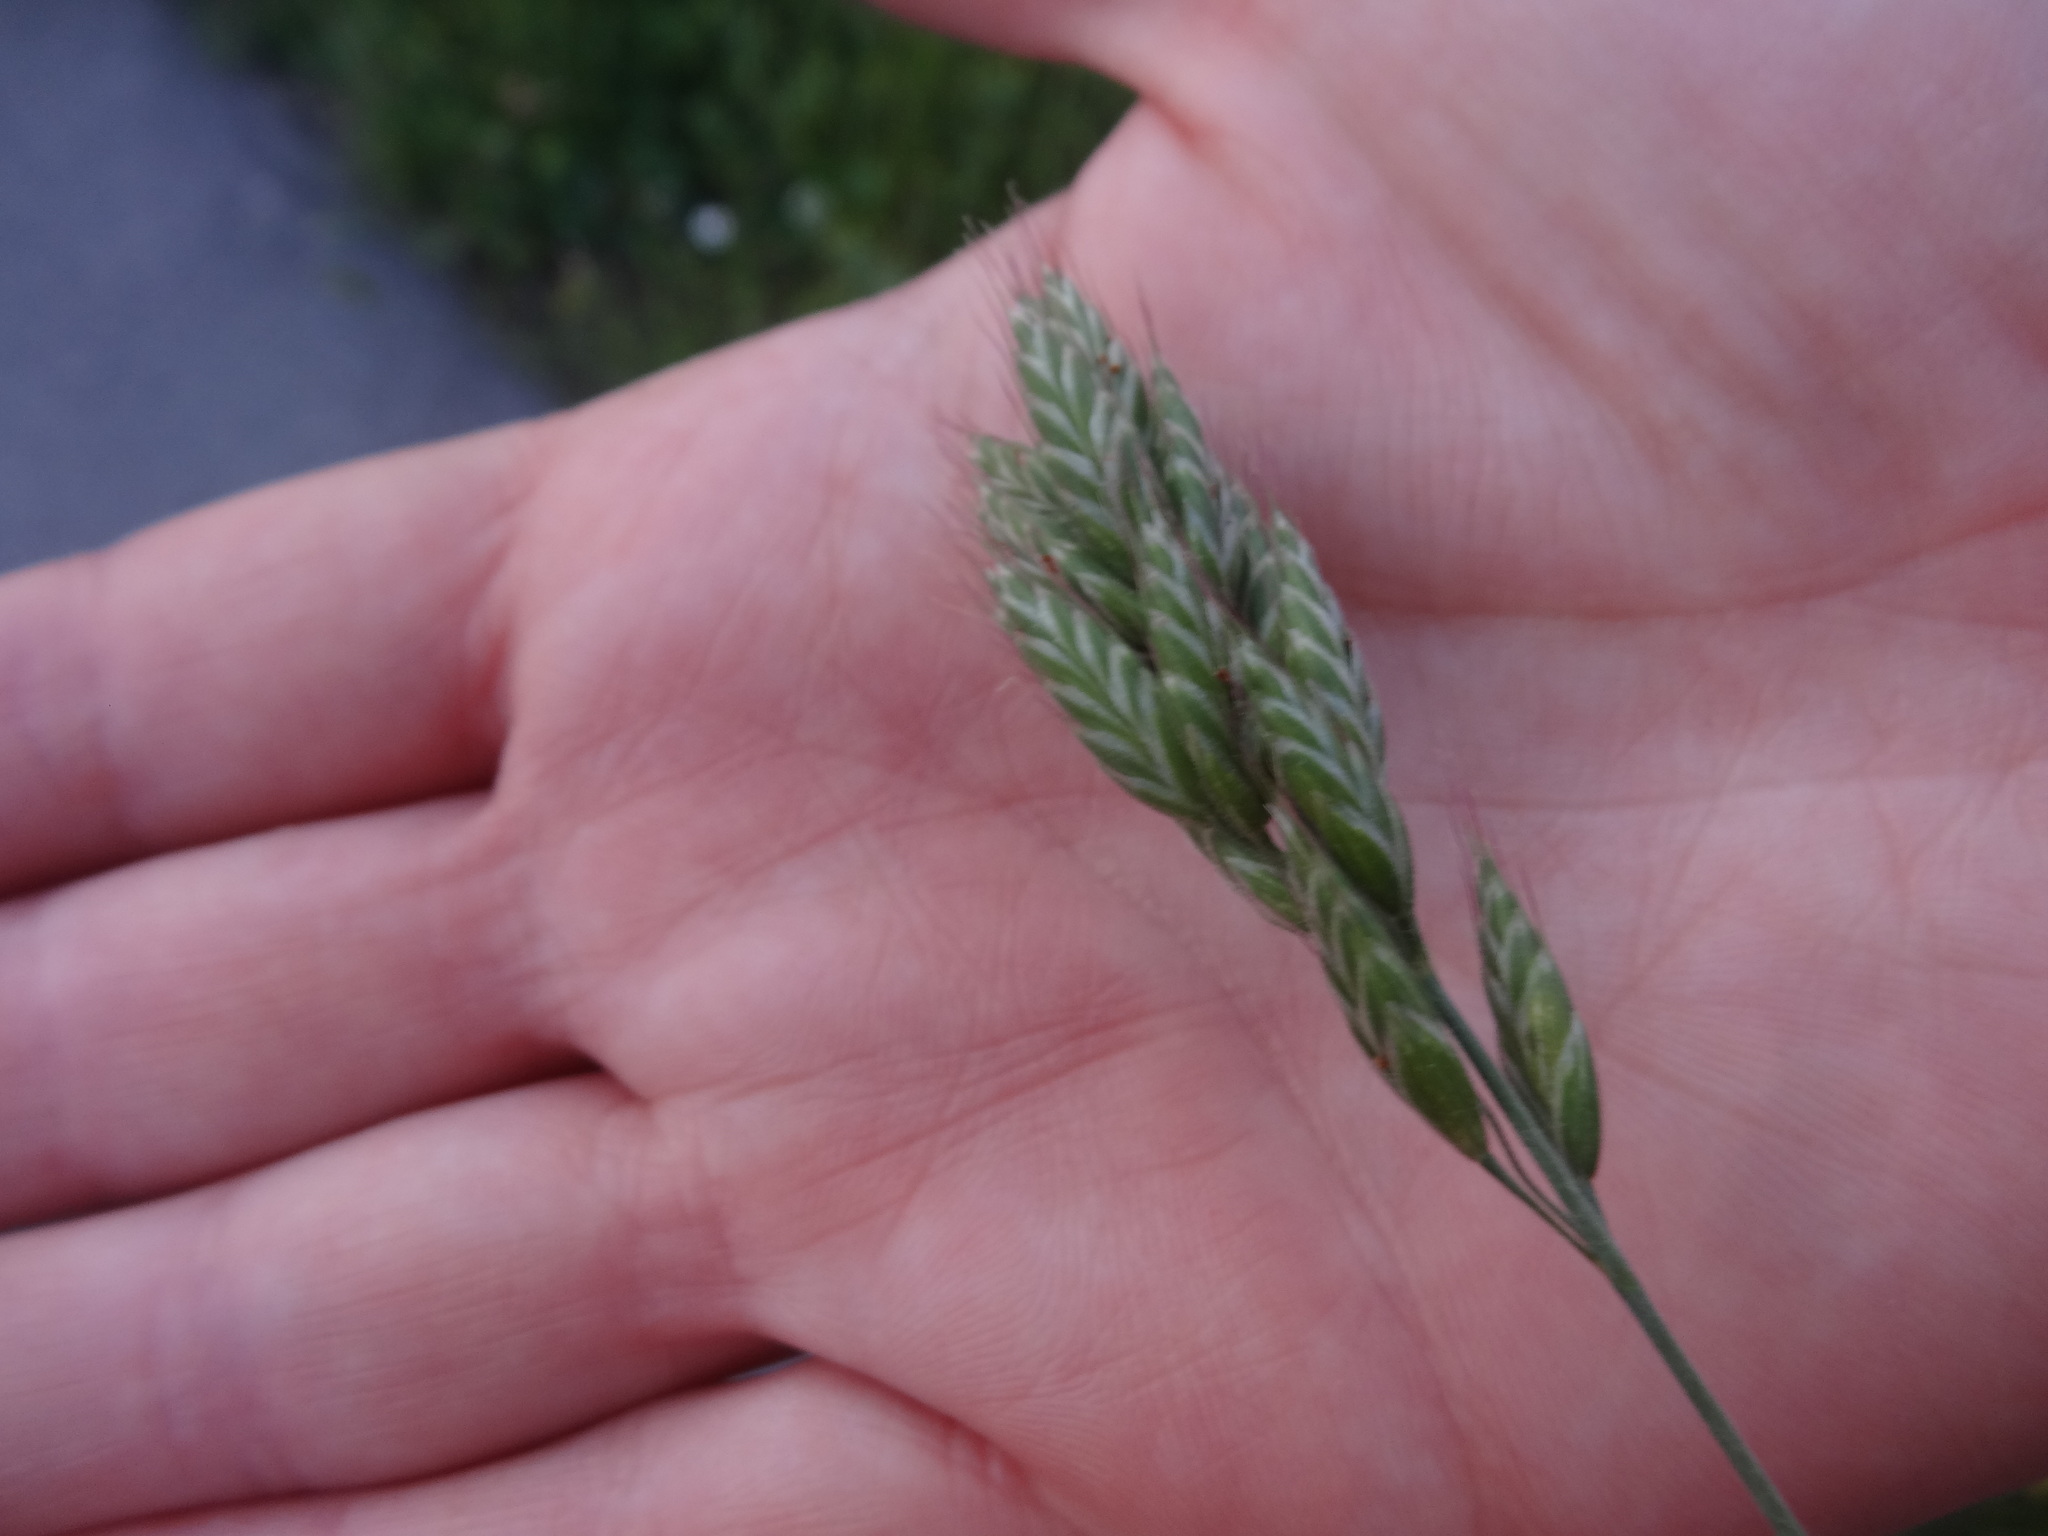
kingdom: Plantae
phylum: Tracheophyta
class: Liliopsida
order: Poales
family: Poaceae
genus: Bromus
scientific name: Bromus hordeaceus
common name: Soft brome
